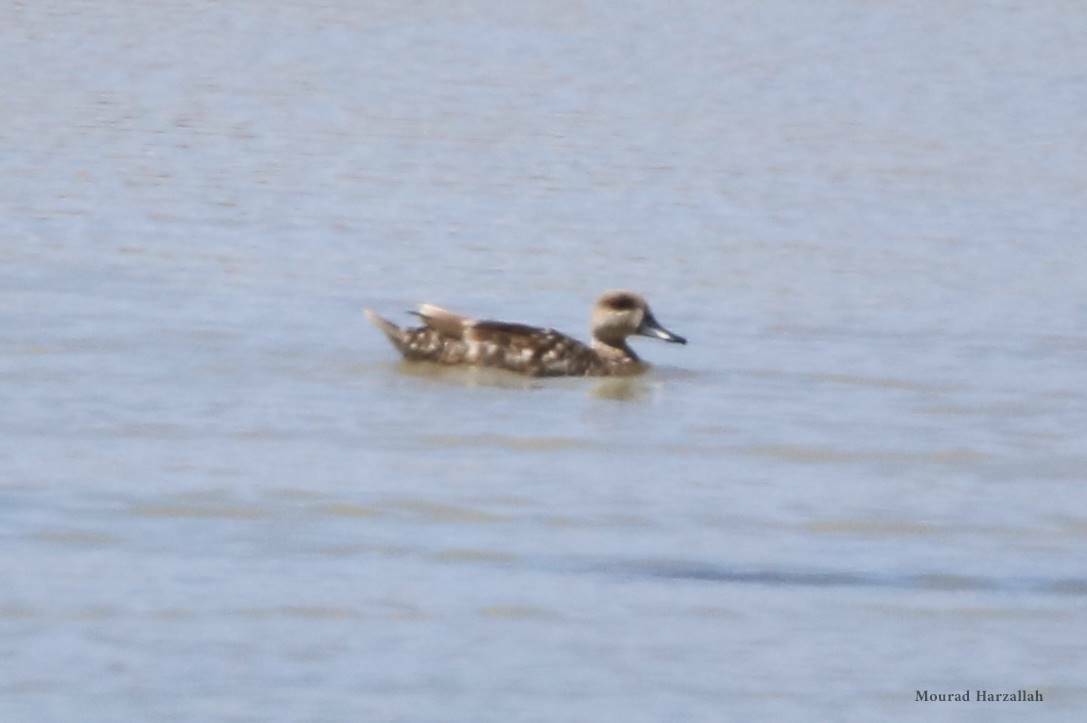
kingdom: Animalia
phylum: Chordata
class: Aves
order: Anseriformes
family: Anatidae
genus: Marmaronetta
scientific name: Marmaronetta angustirostris
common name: Marbled duck
